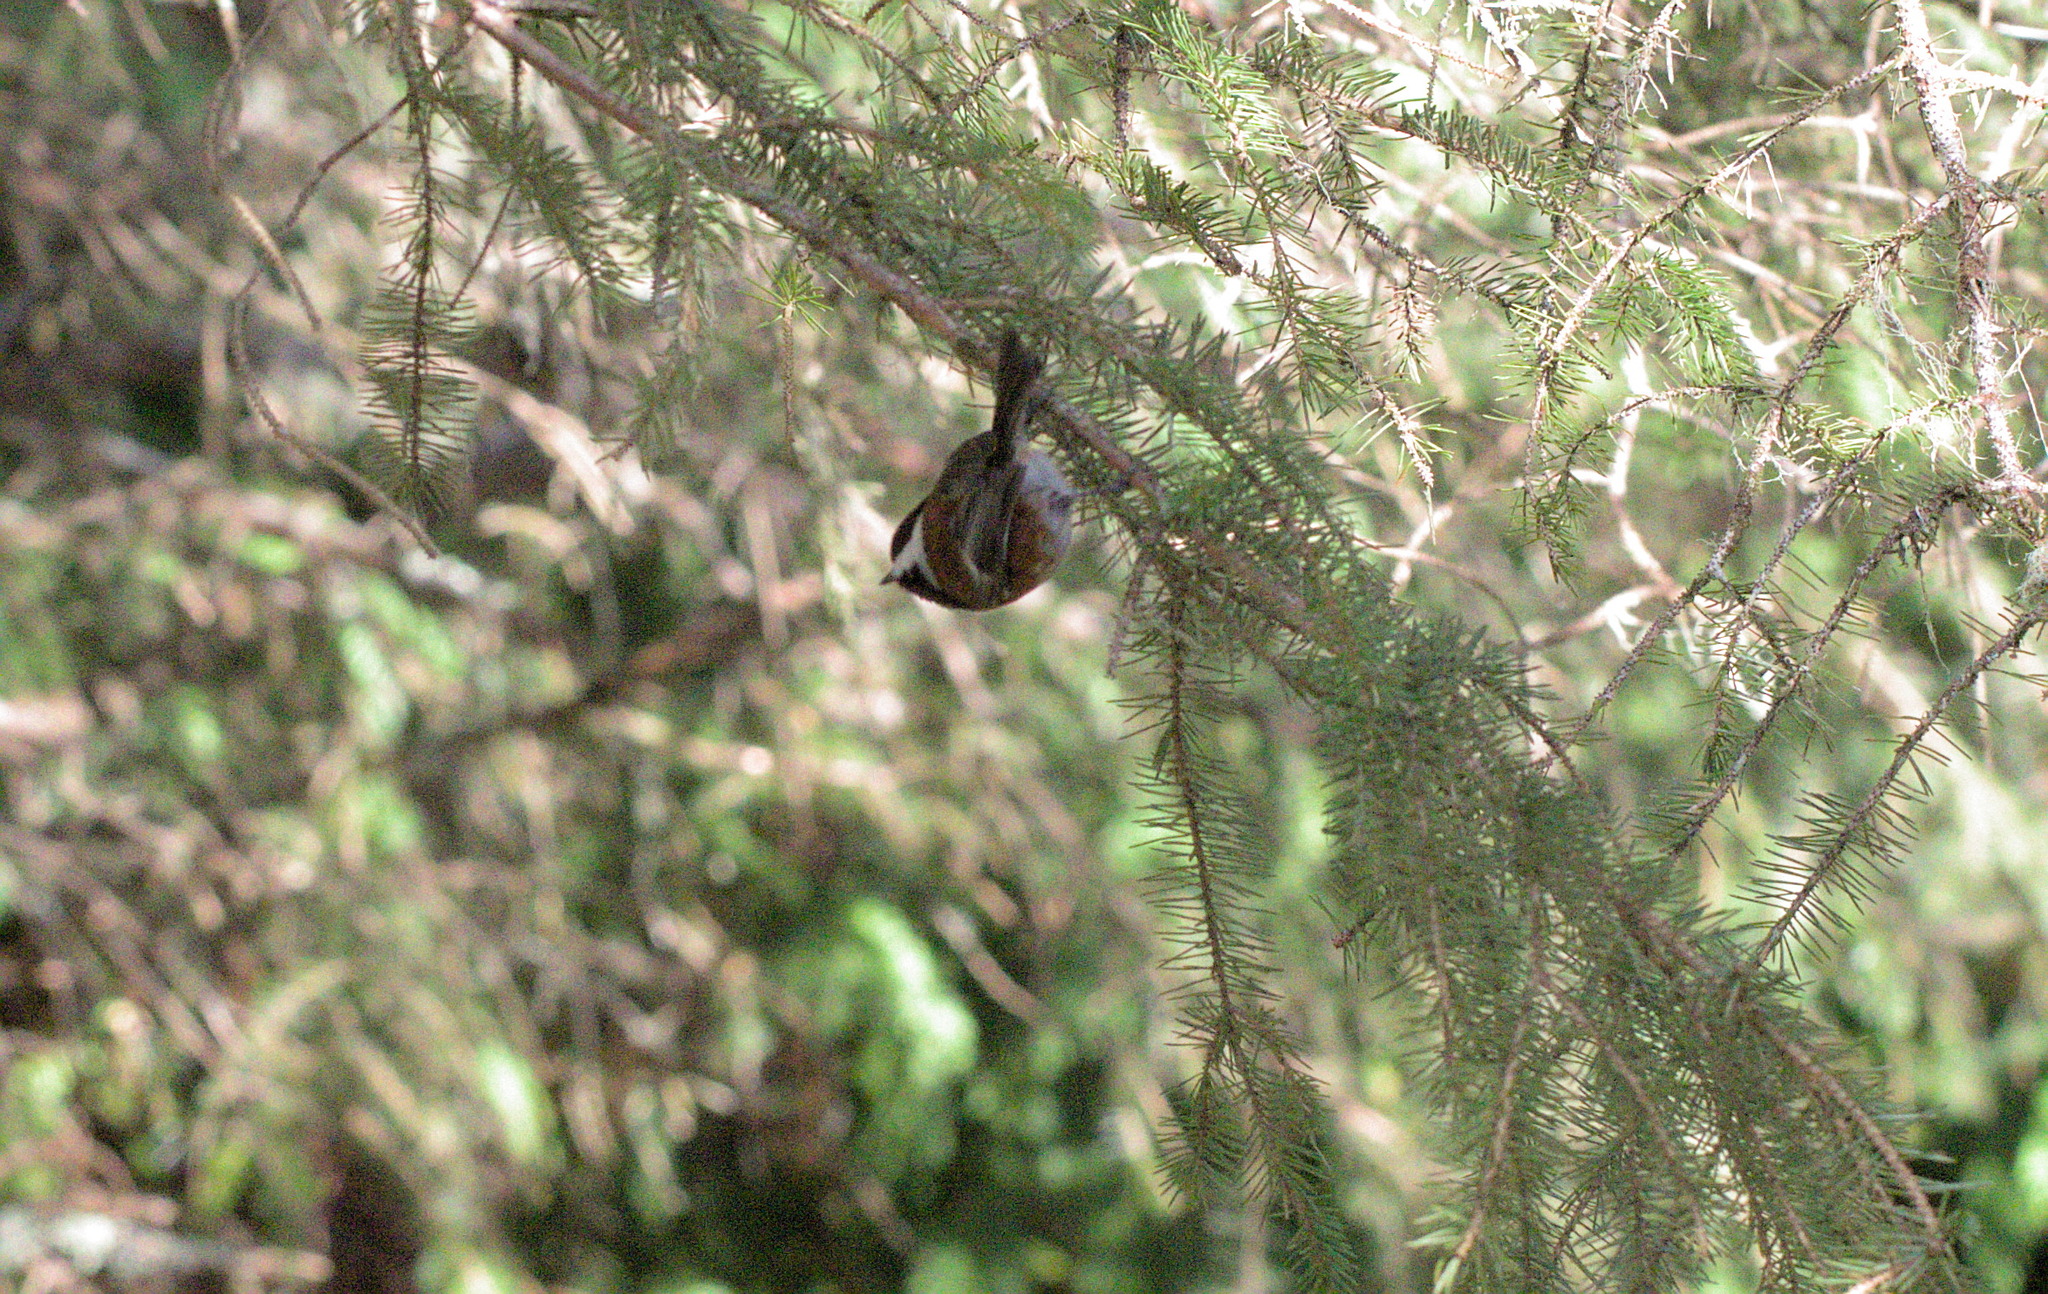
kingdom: Animalia
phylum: Chordata
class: Aves
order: Passeriformes
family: Paridae
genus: Poecile
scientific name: Poecile rufescens
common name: Chestnut-backed chickadee
